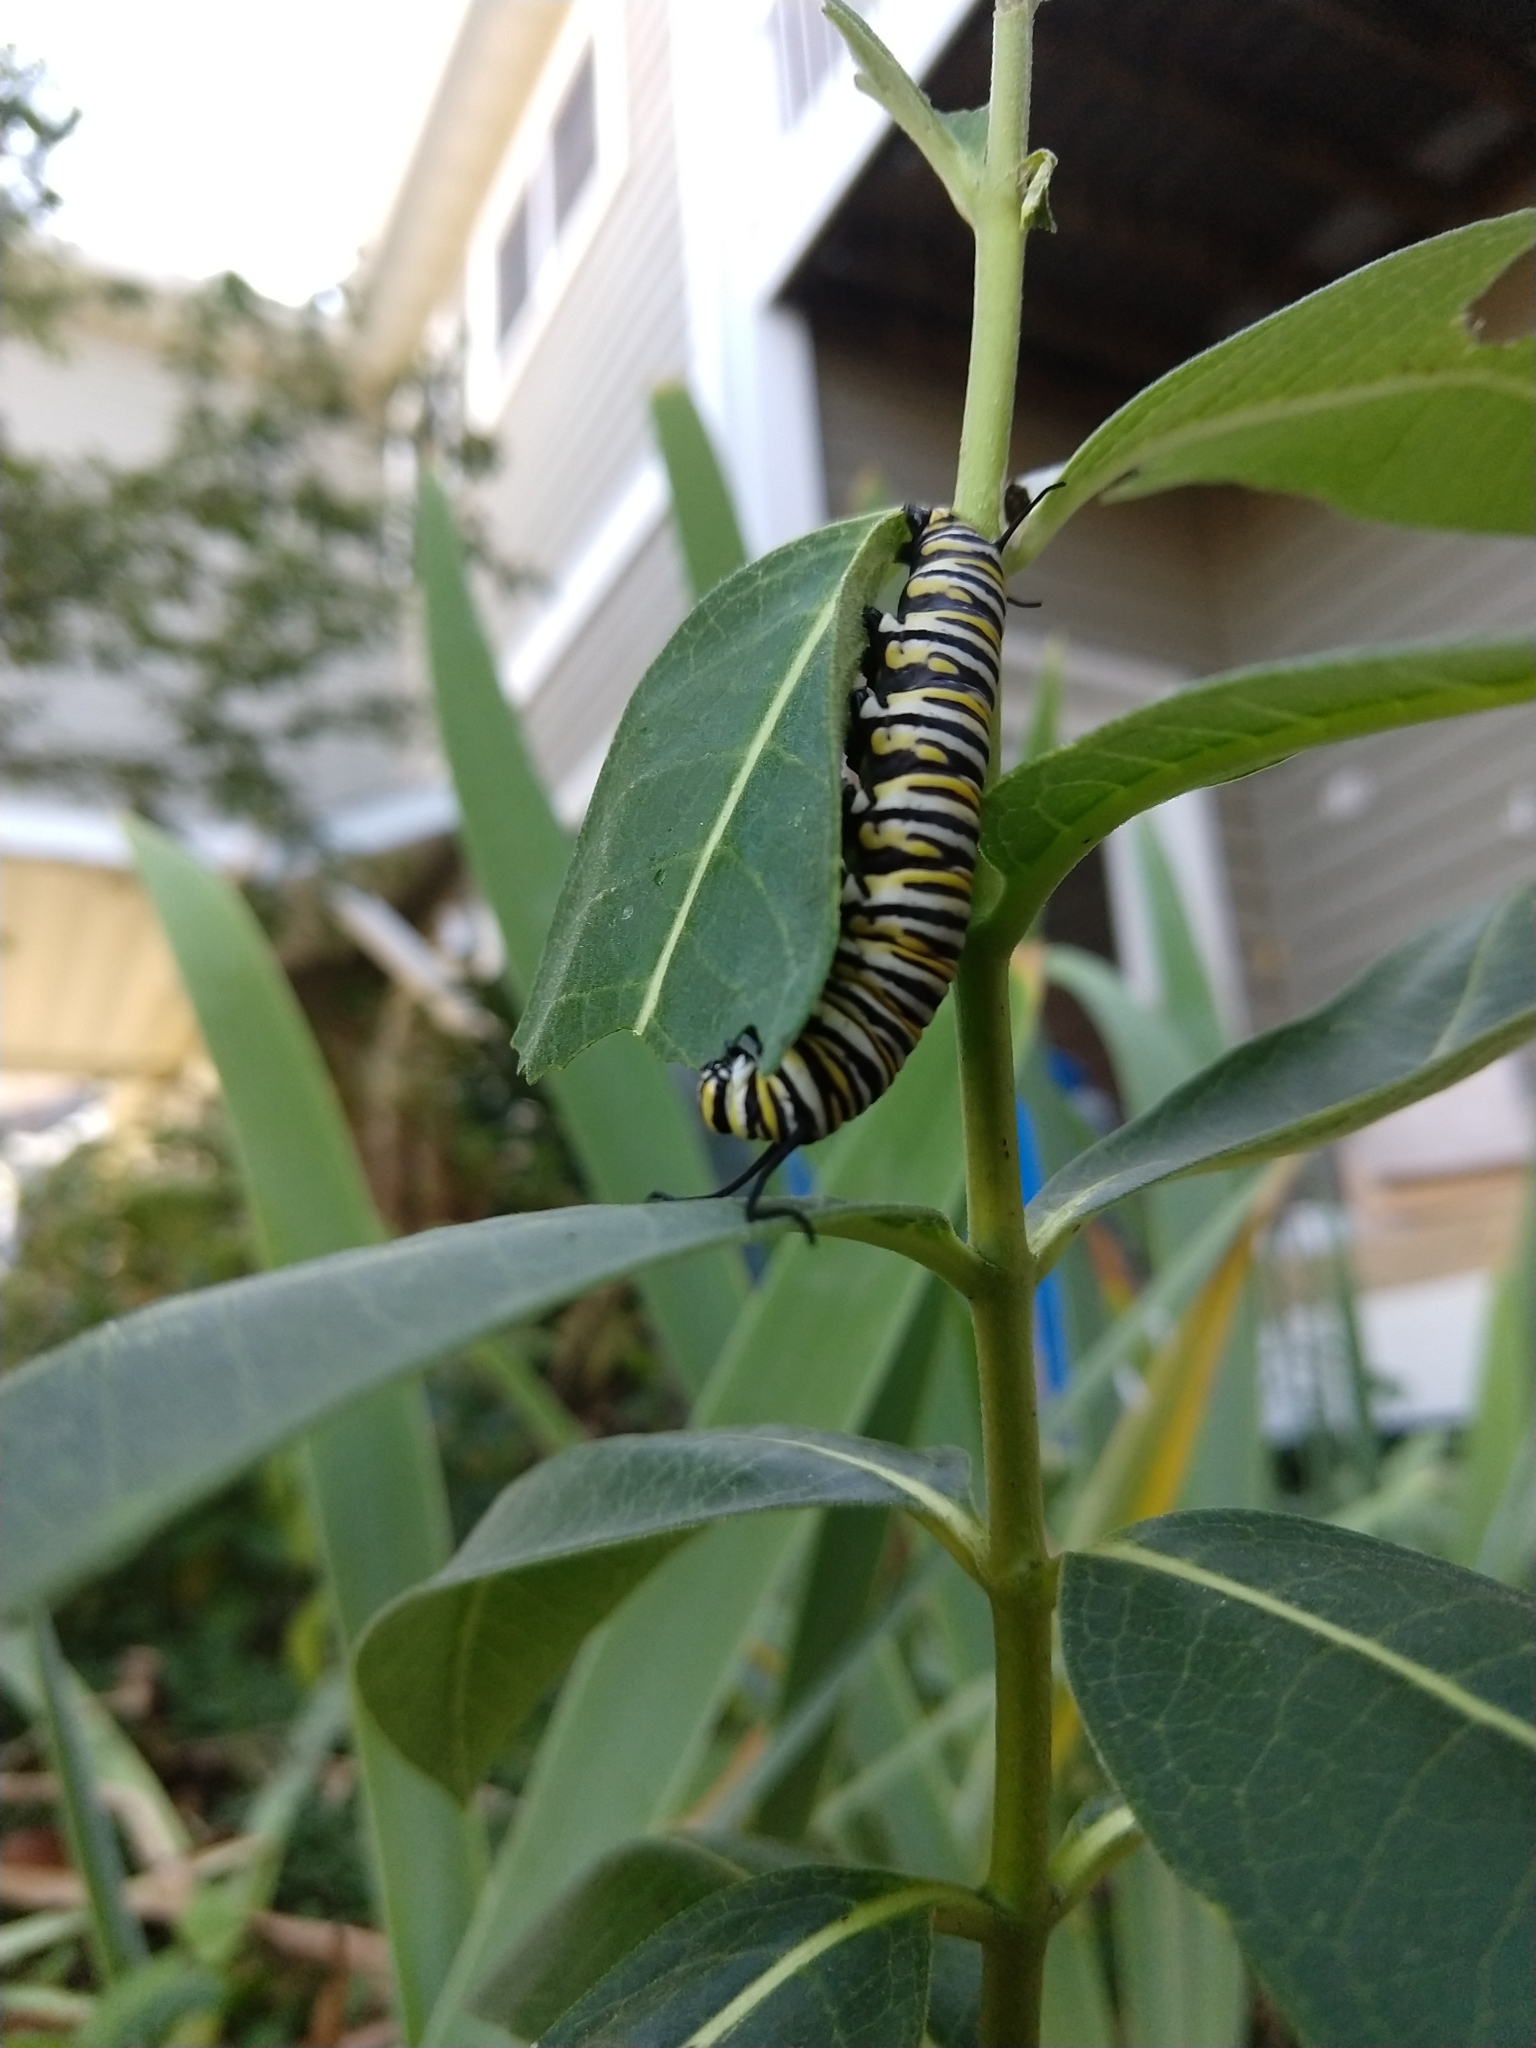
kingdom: Animalia
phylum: Arthropoda
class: Insecta
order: Lepidoptera
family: Nymphalidae
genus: Danaus
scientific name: Danaus plexippus
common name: Monarch
